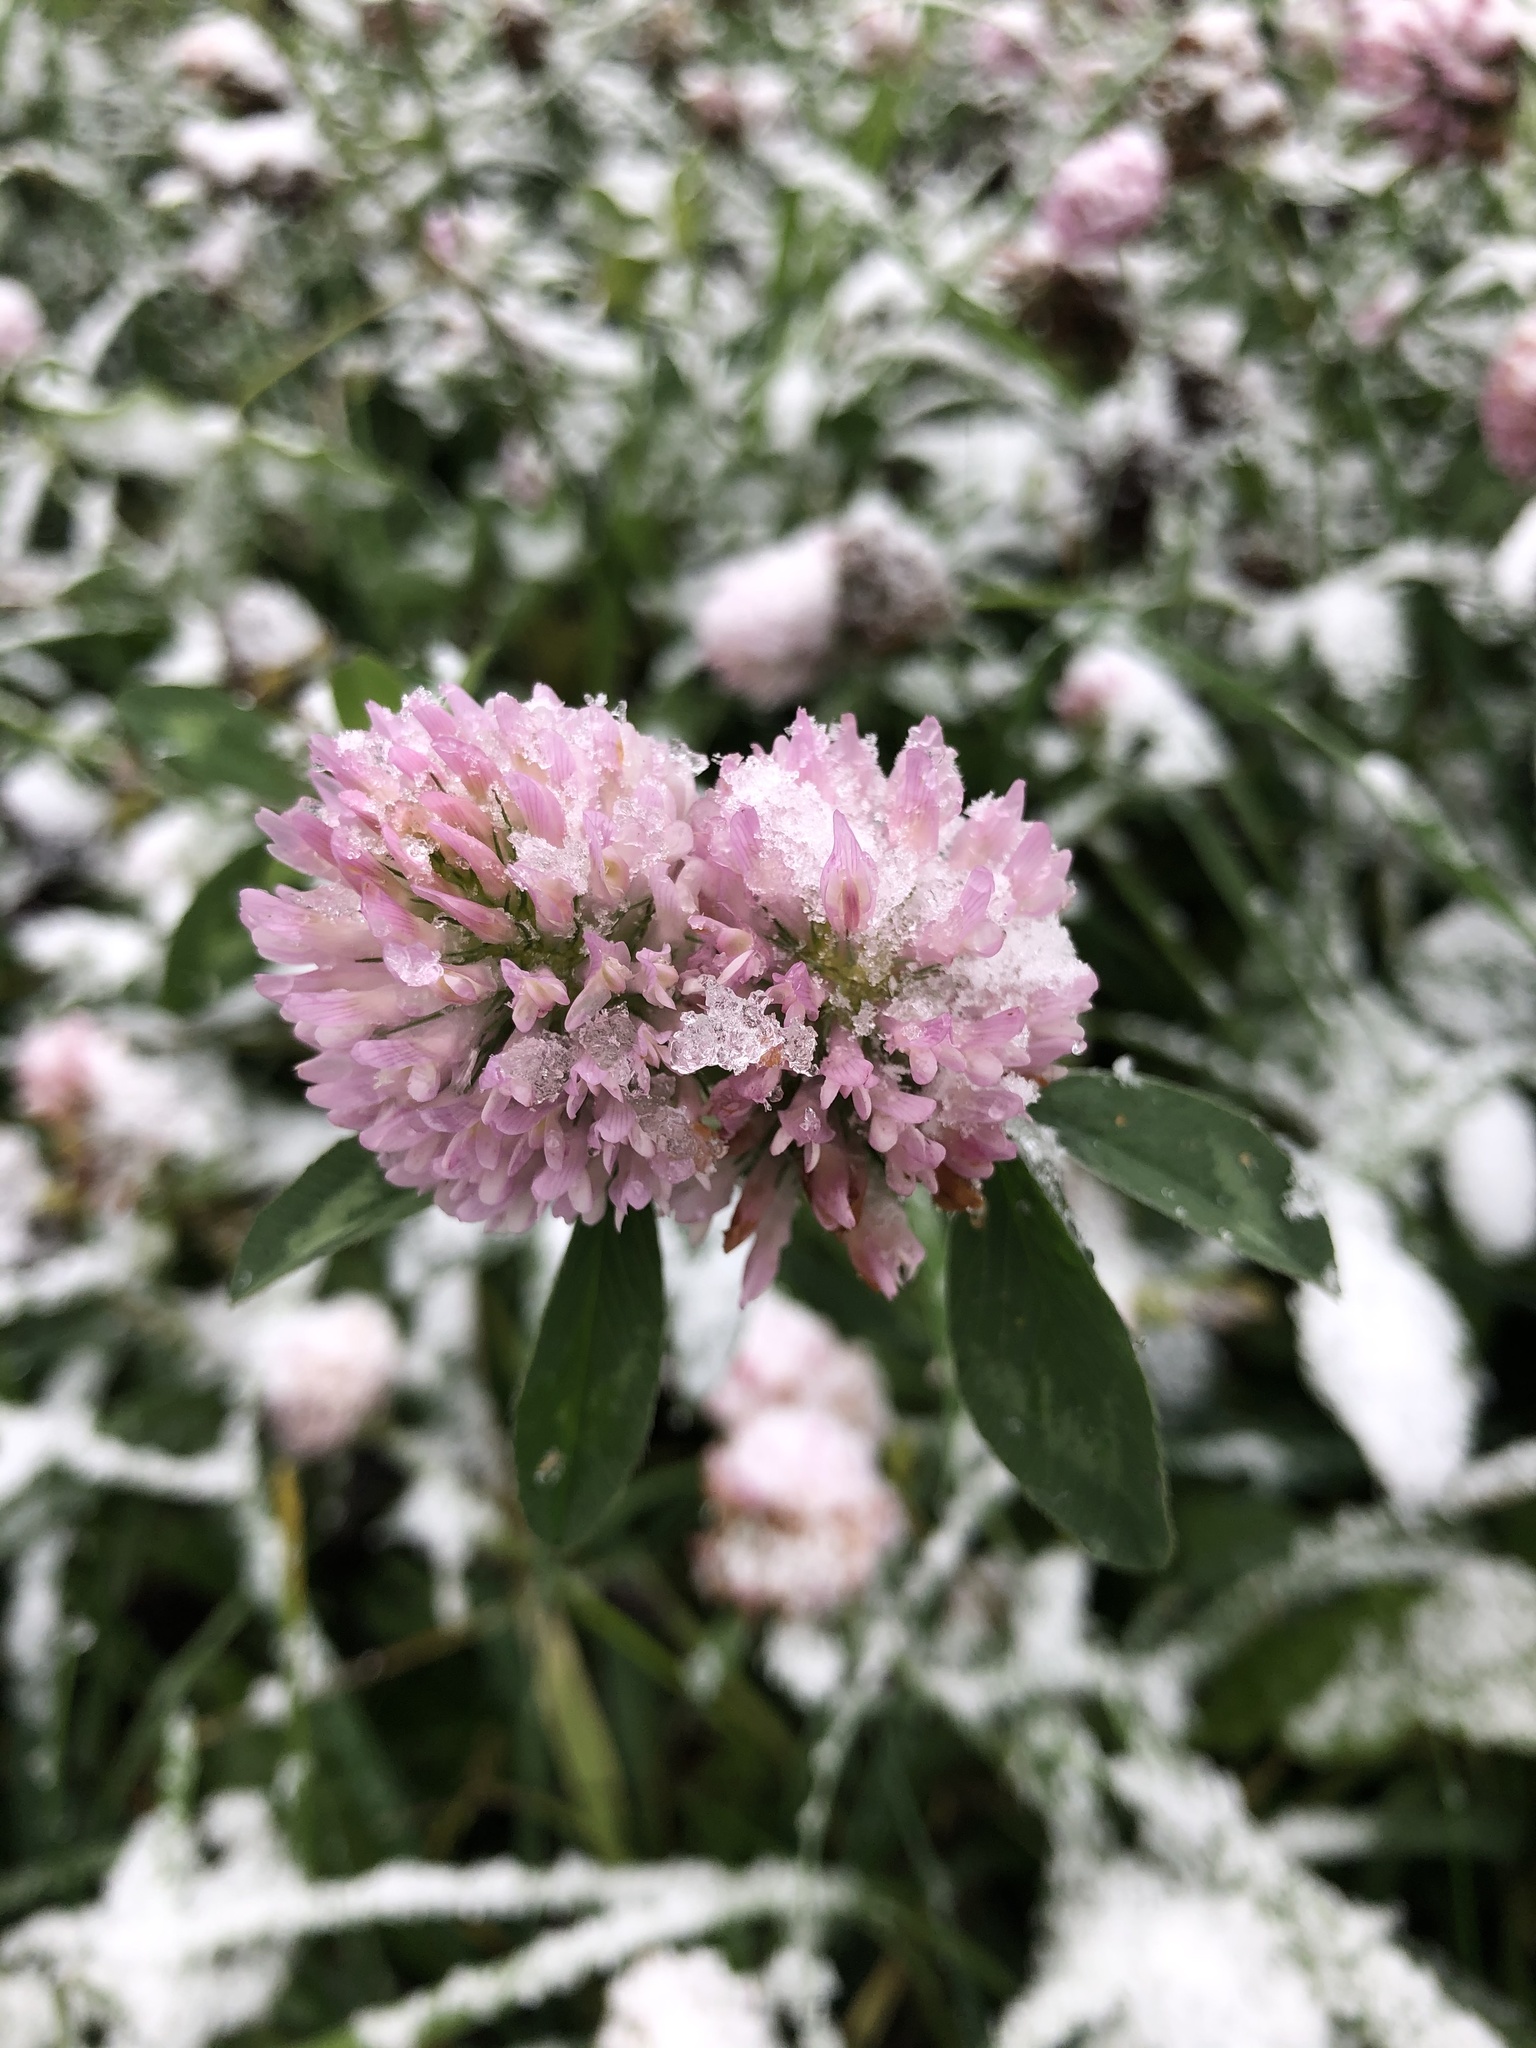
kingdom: Plantae
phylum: Tracheophyta
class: Magnoliopsida
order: Fabales
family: Fabaceae
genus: Trifolium
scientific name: Trifolium pratense
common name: Red clover
